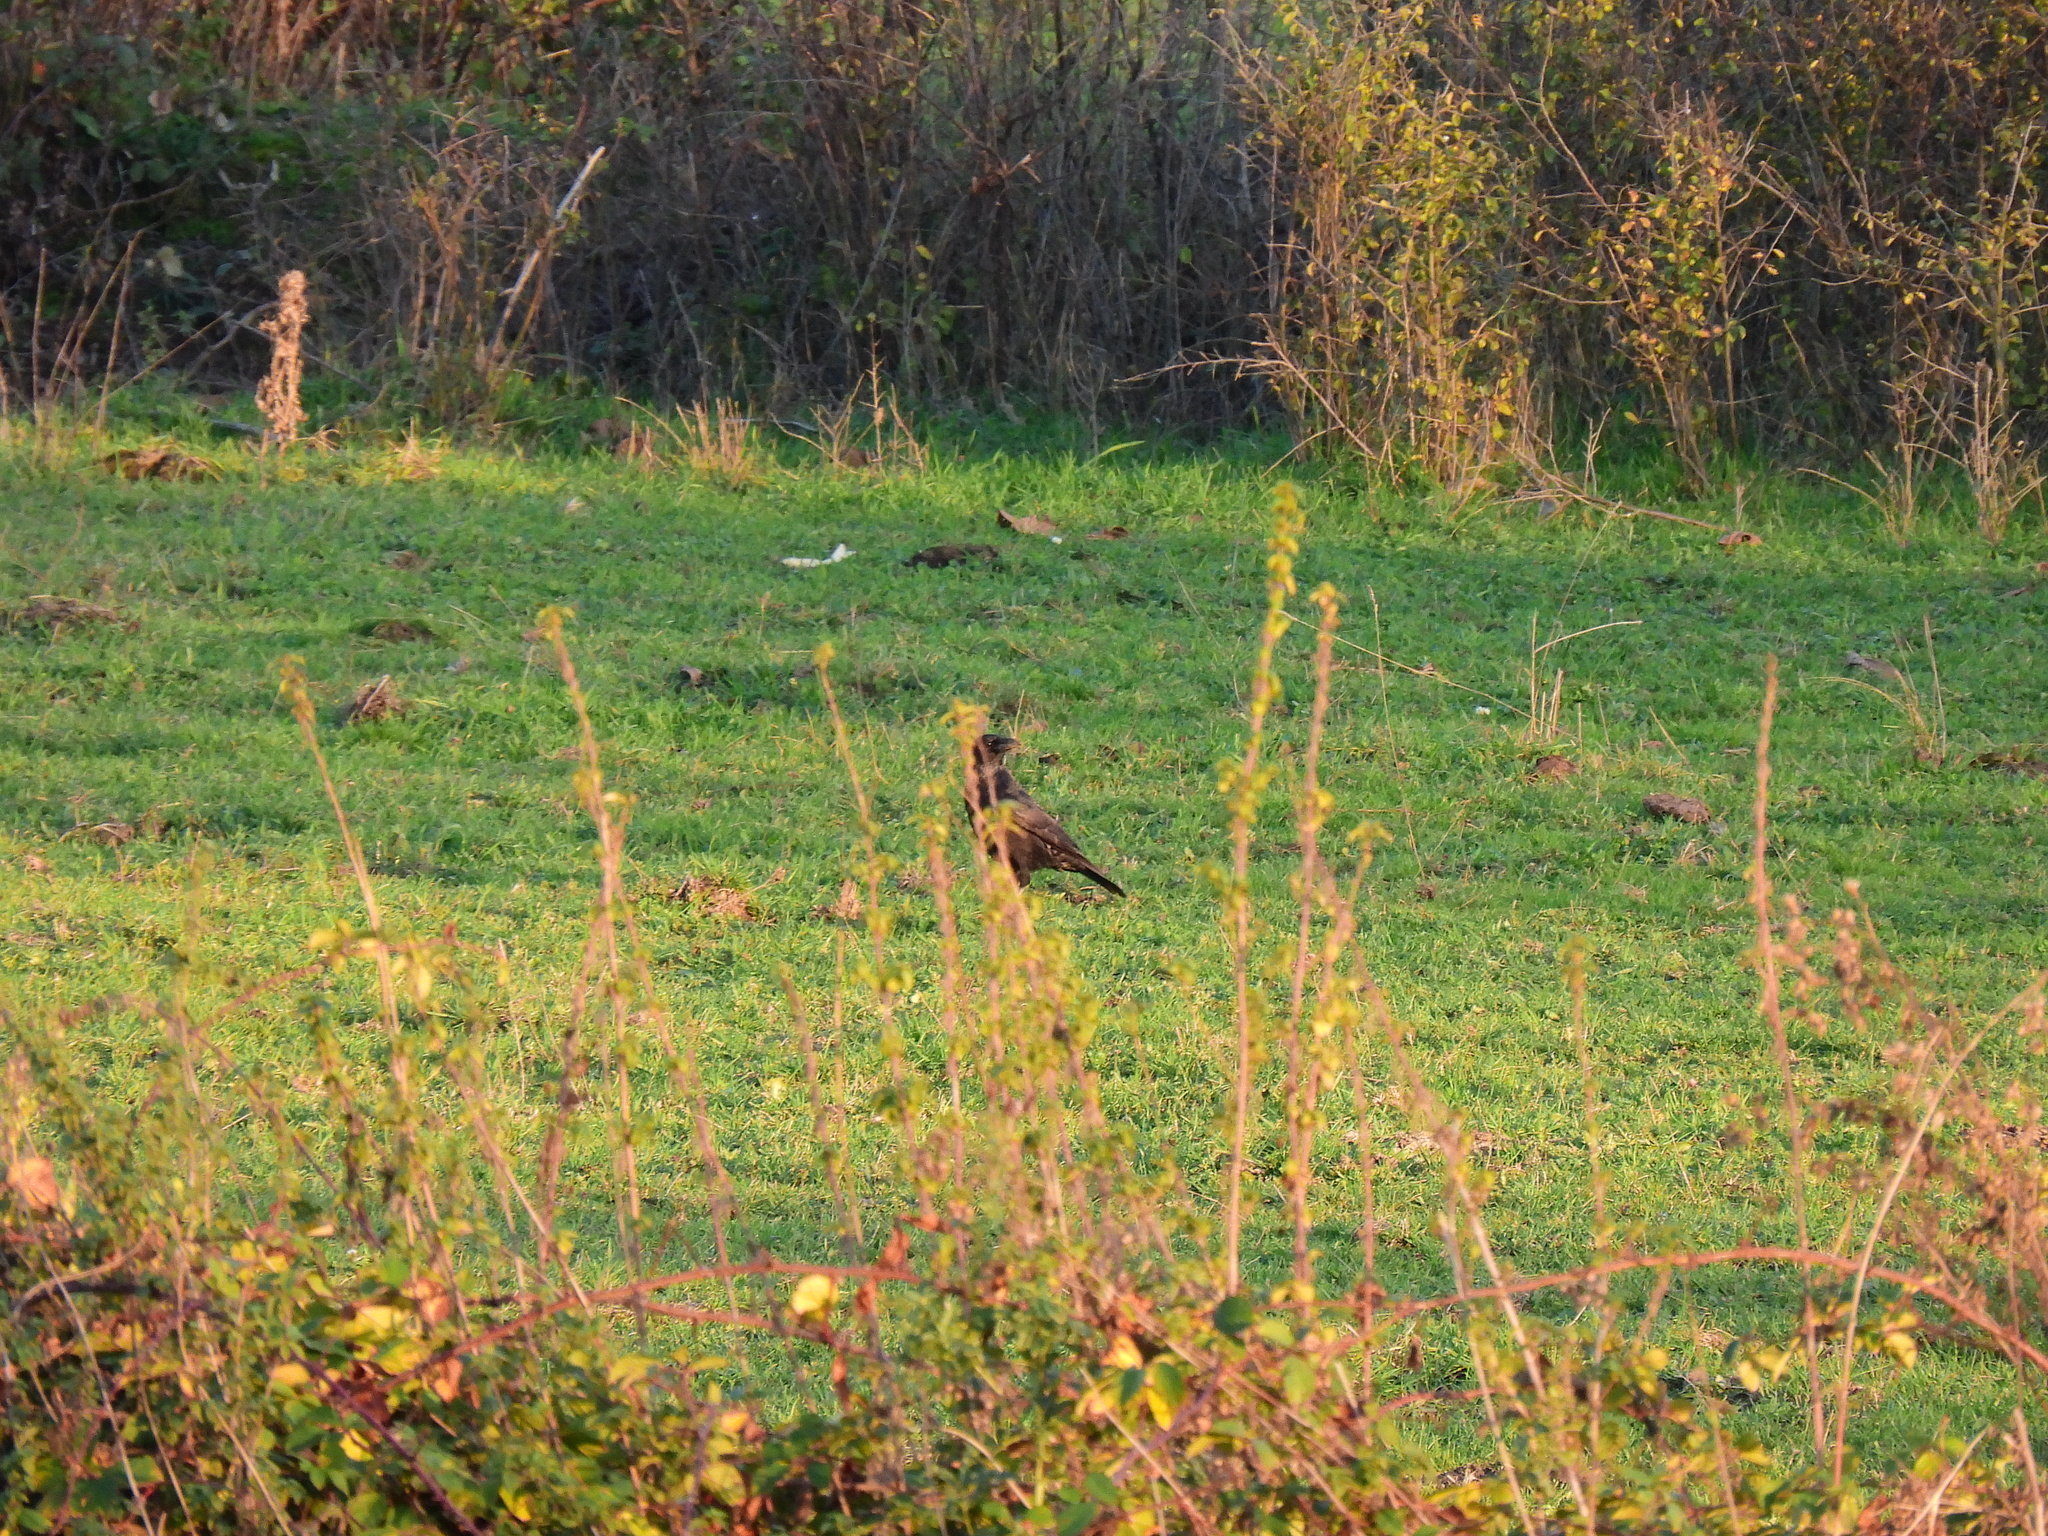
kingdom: Animalia
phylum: Chordata
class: Aves
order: Passeriformes
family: Corvidae
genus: Corvus
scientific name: Corvus corone
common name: Carrion crow
